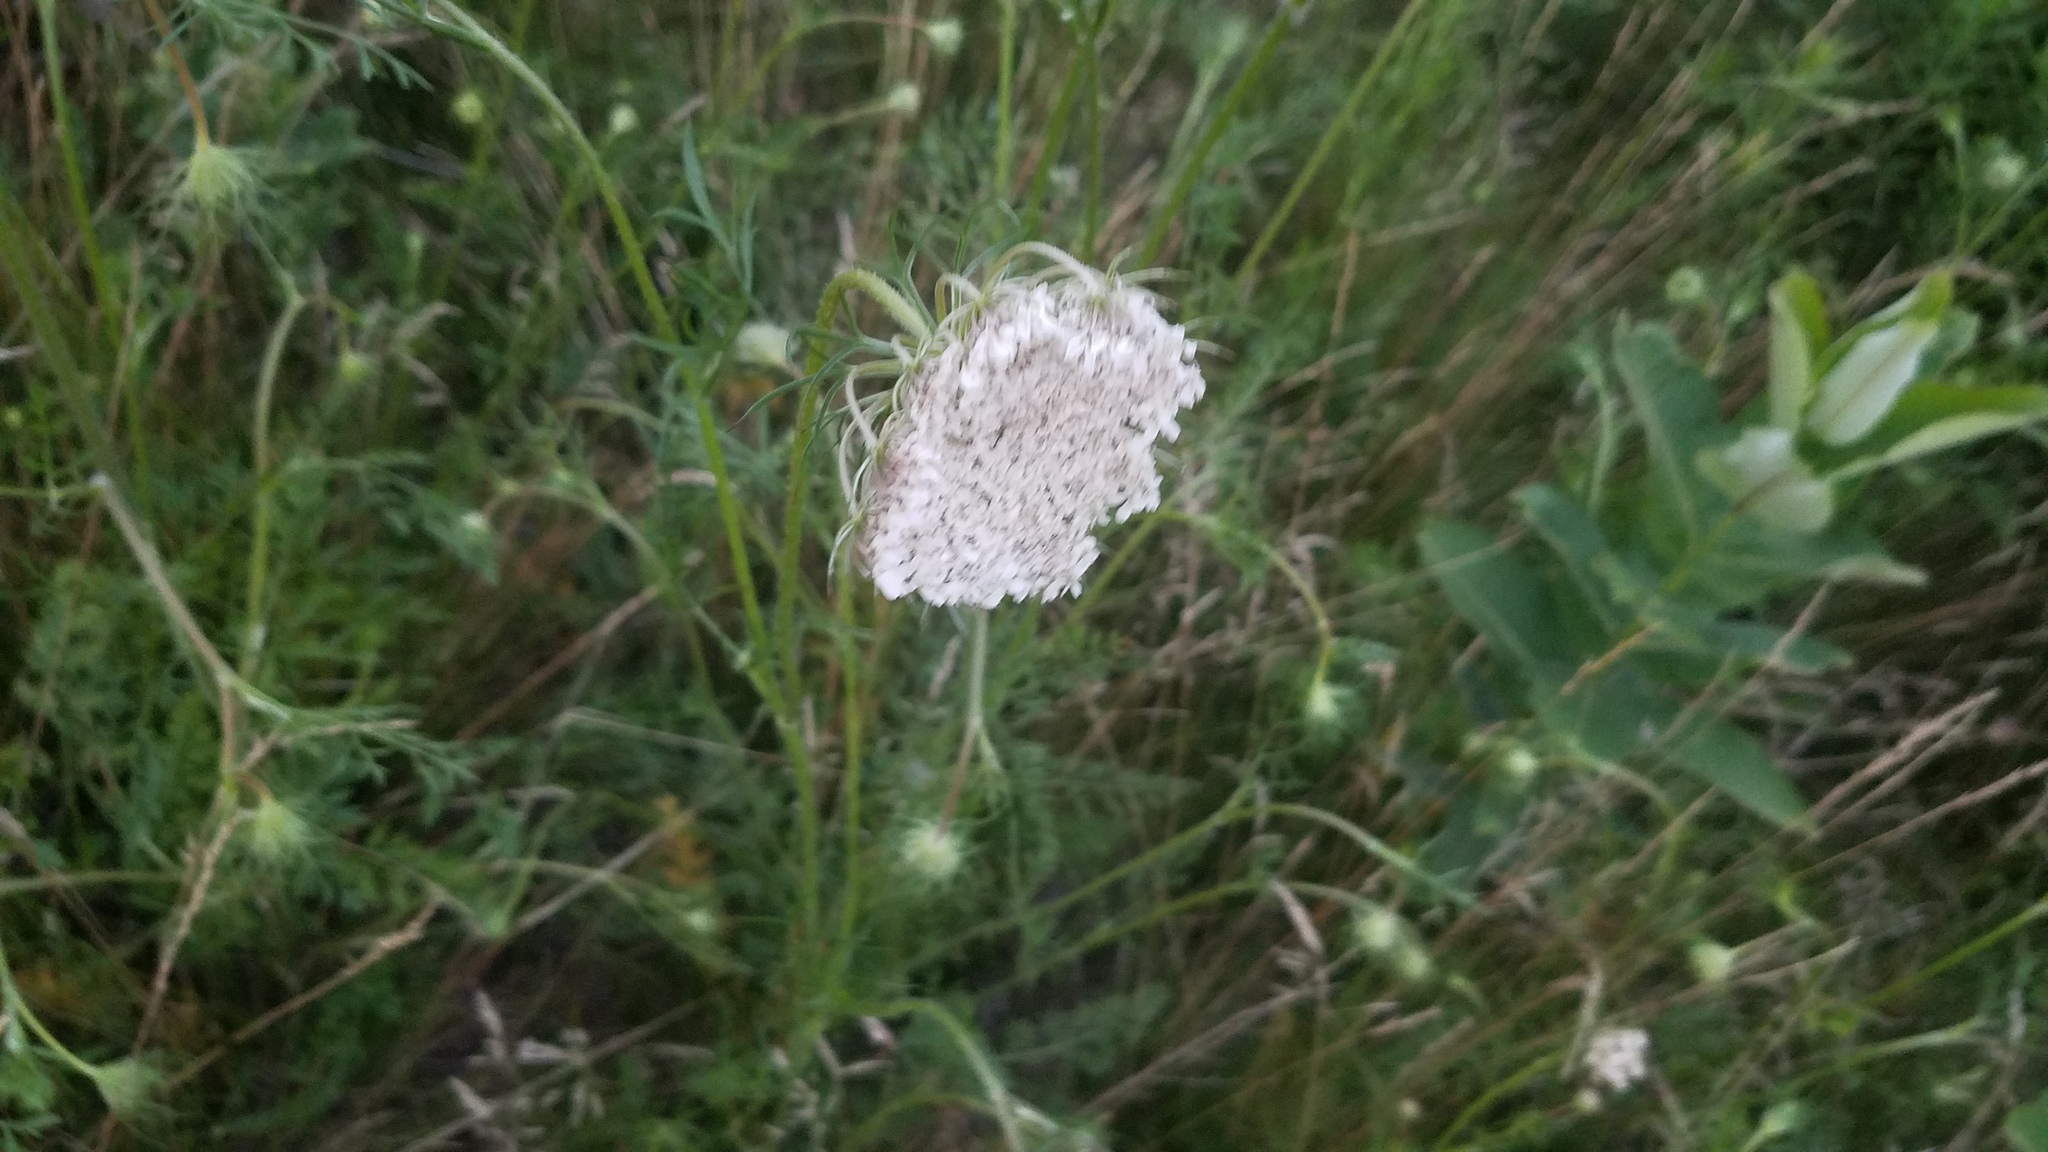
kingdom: Plantae
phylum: Tracheophyta
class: Magnoliopsida
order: Apiales
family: Apiaceae
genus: Daucus
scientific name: Daucus carota
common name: Wild carrot
